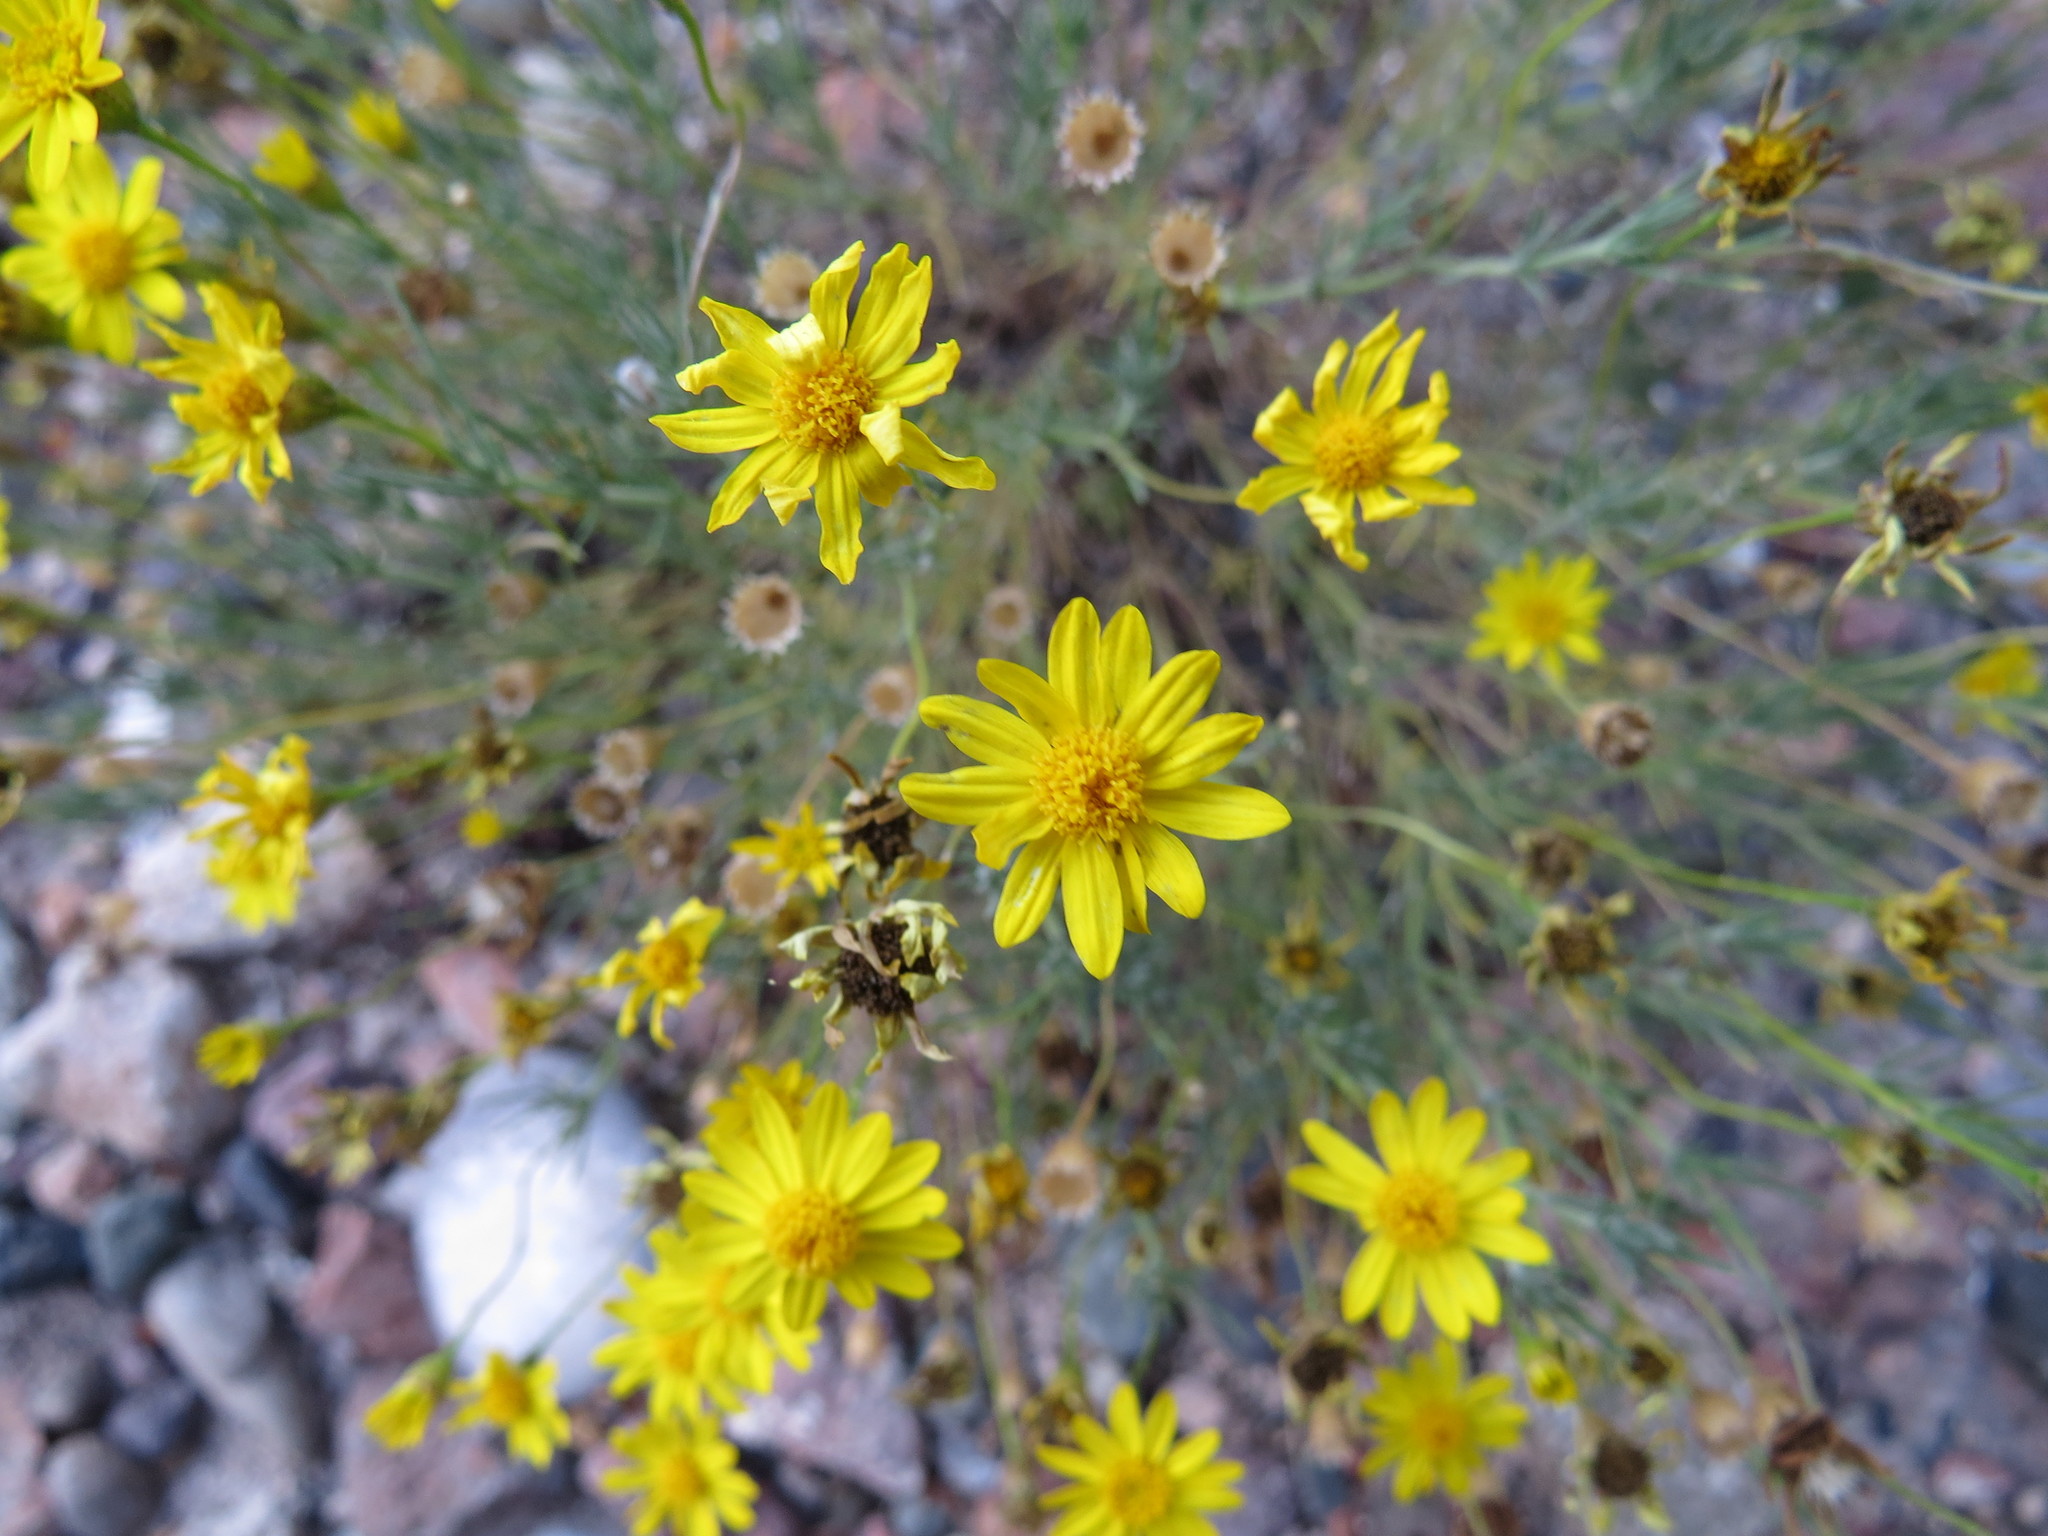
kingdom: Plantae
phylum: Tracheophyta
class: Magnoliopsida
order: Asterales
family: Asteraceae
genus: Thymophylla
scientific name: Thymophylla pentachaeta
